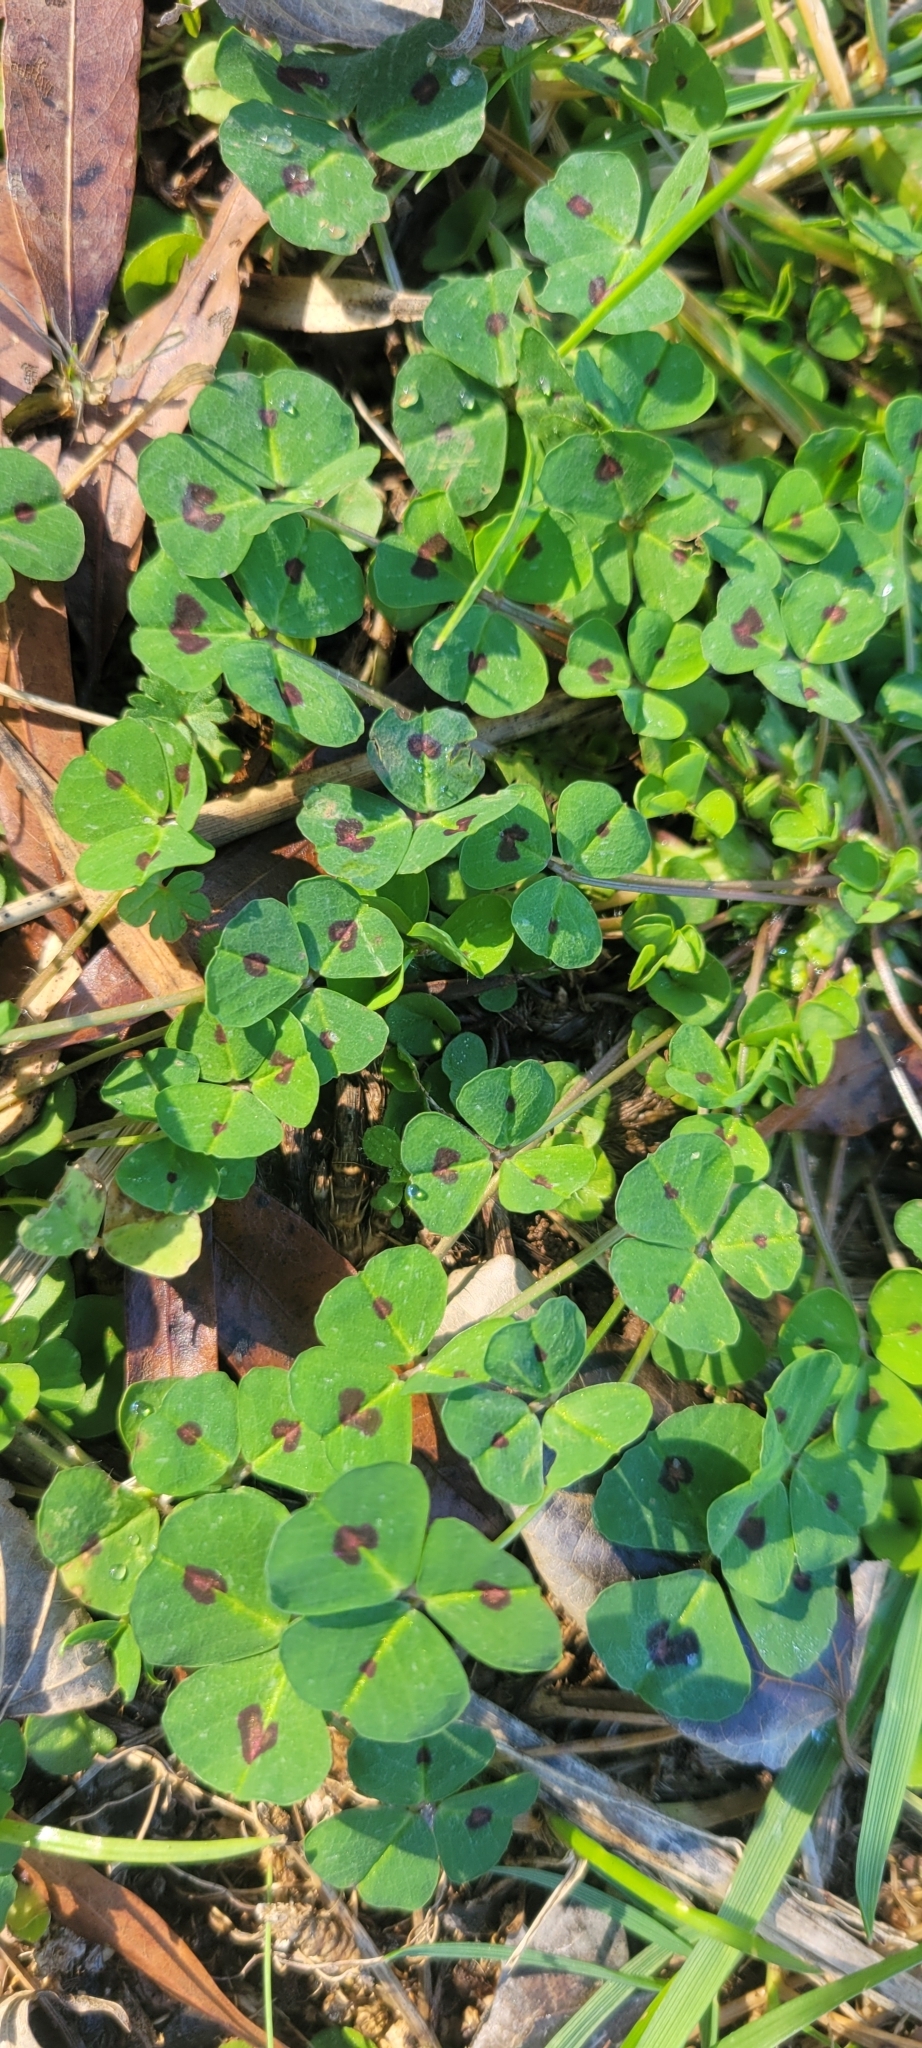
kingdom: Plantae
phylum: Tracheophyta
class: Magnoliopsida
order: Fabales
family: Fabaceae
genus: Medicago
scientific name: Medicago arabica
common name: Spotted medick
